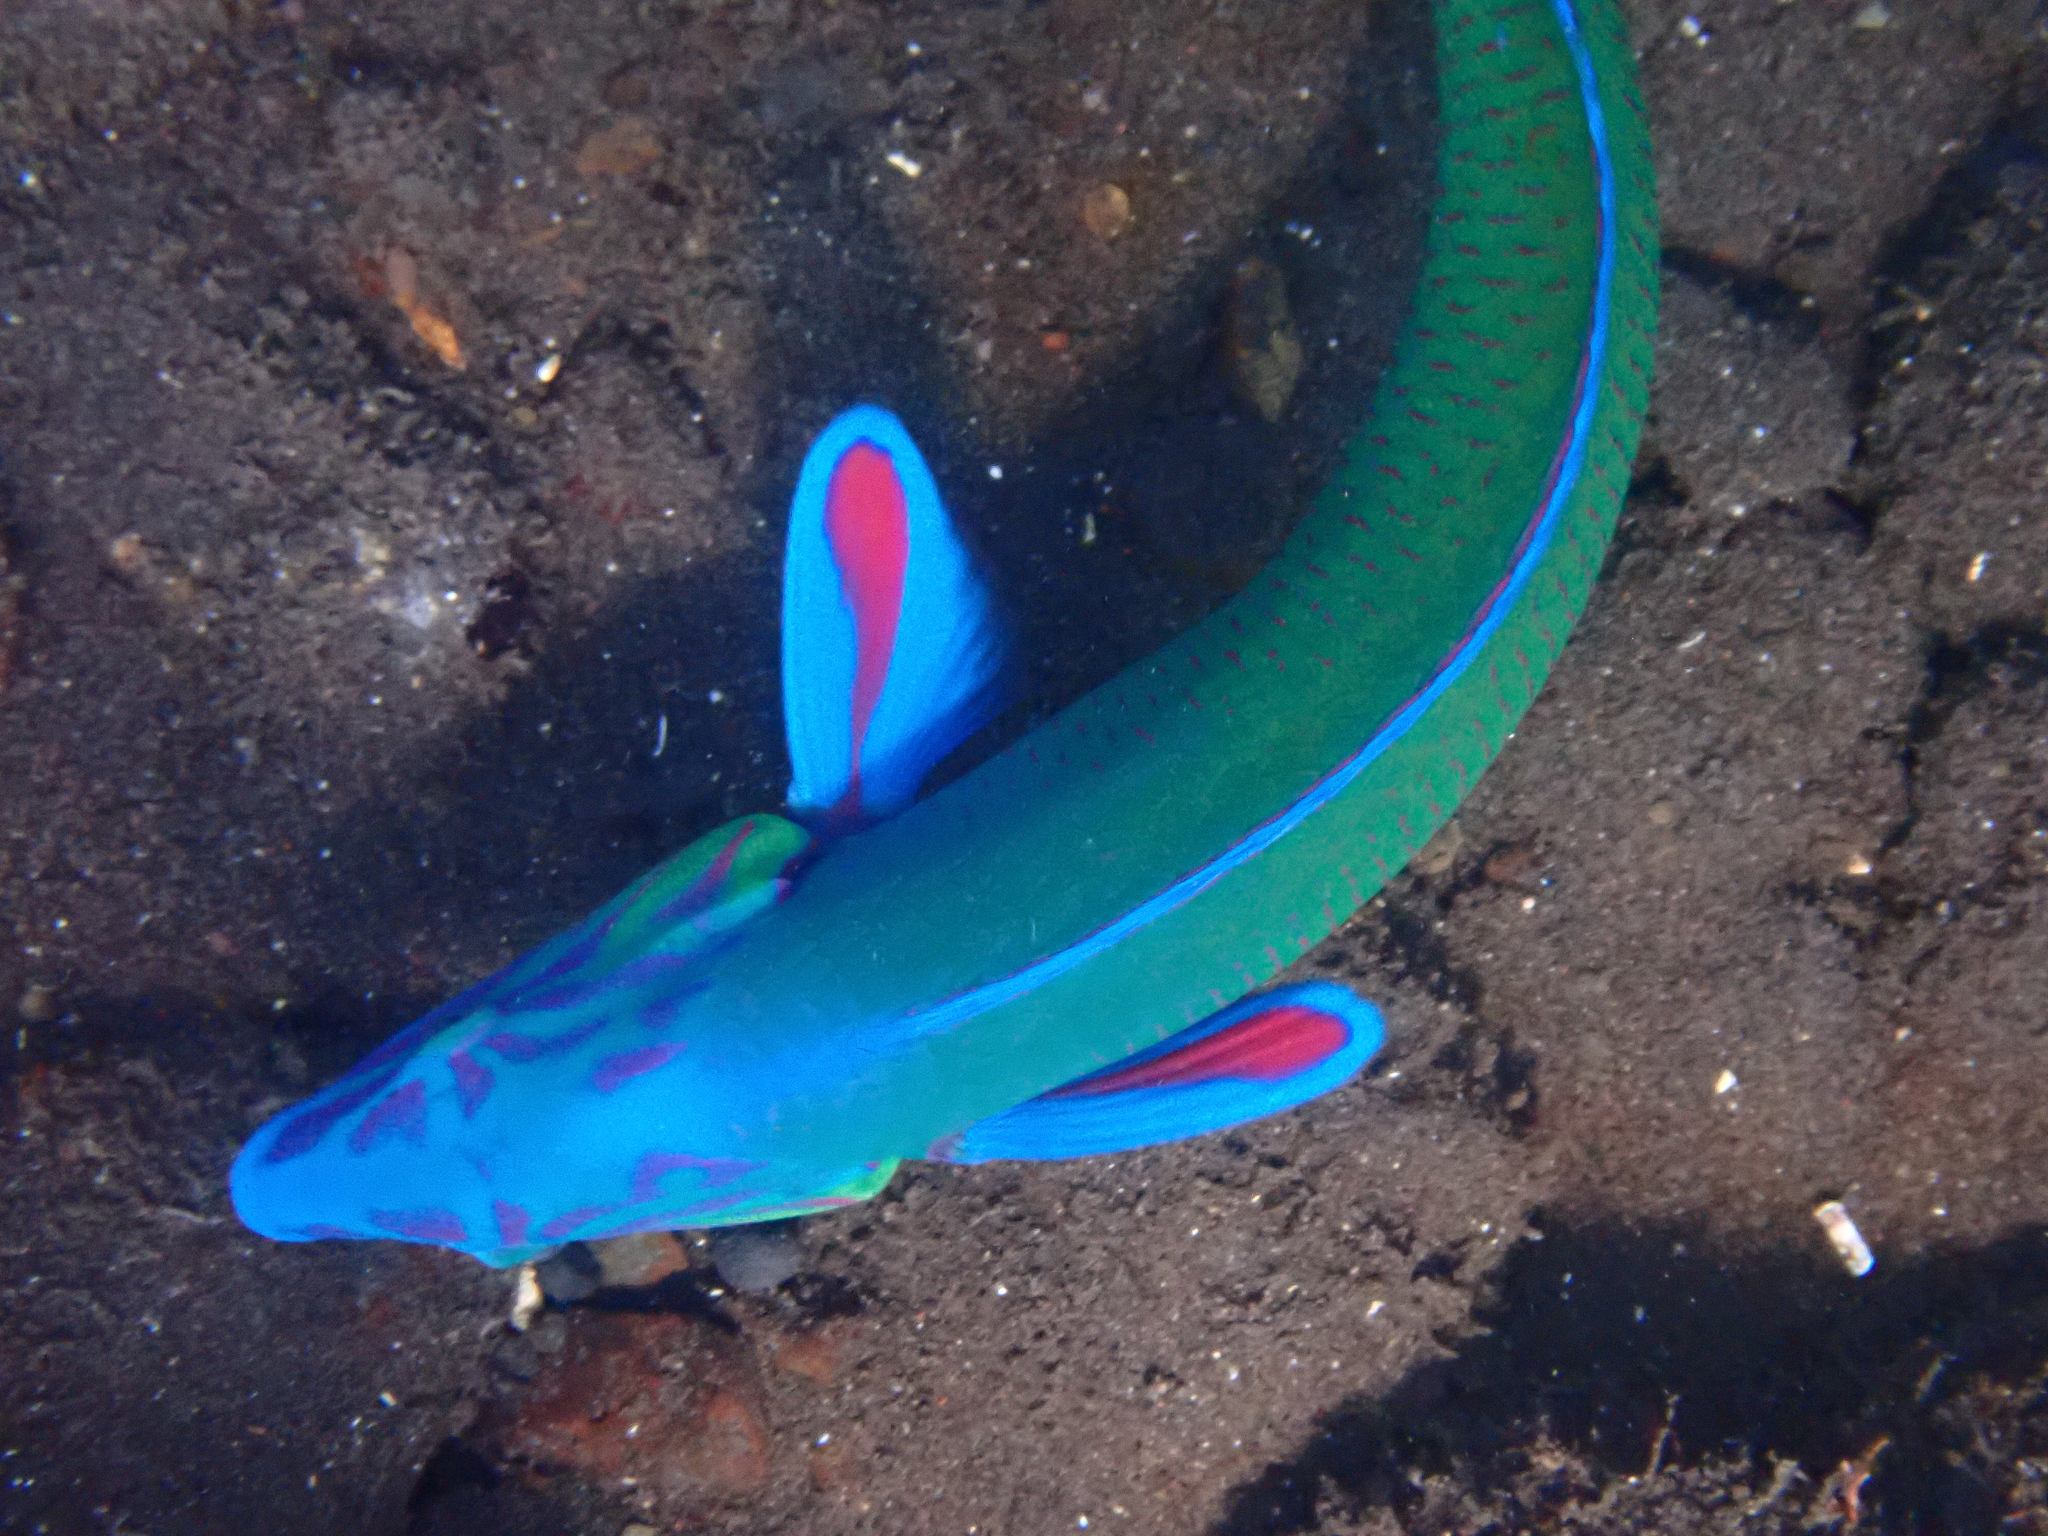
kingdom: Animalia
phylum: Chordata
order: Perciformes
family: Labridae
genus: Thalassoma
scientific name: Thalassoma lunare
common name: Blue wrasse
